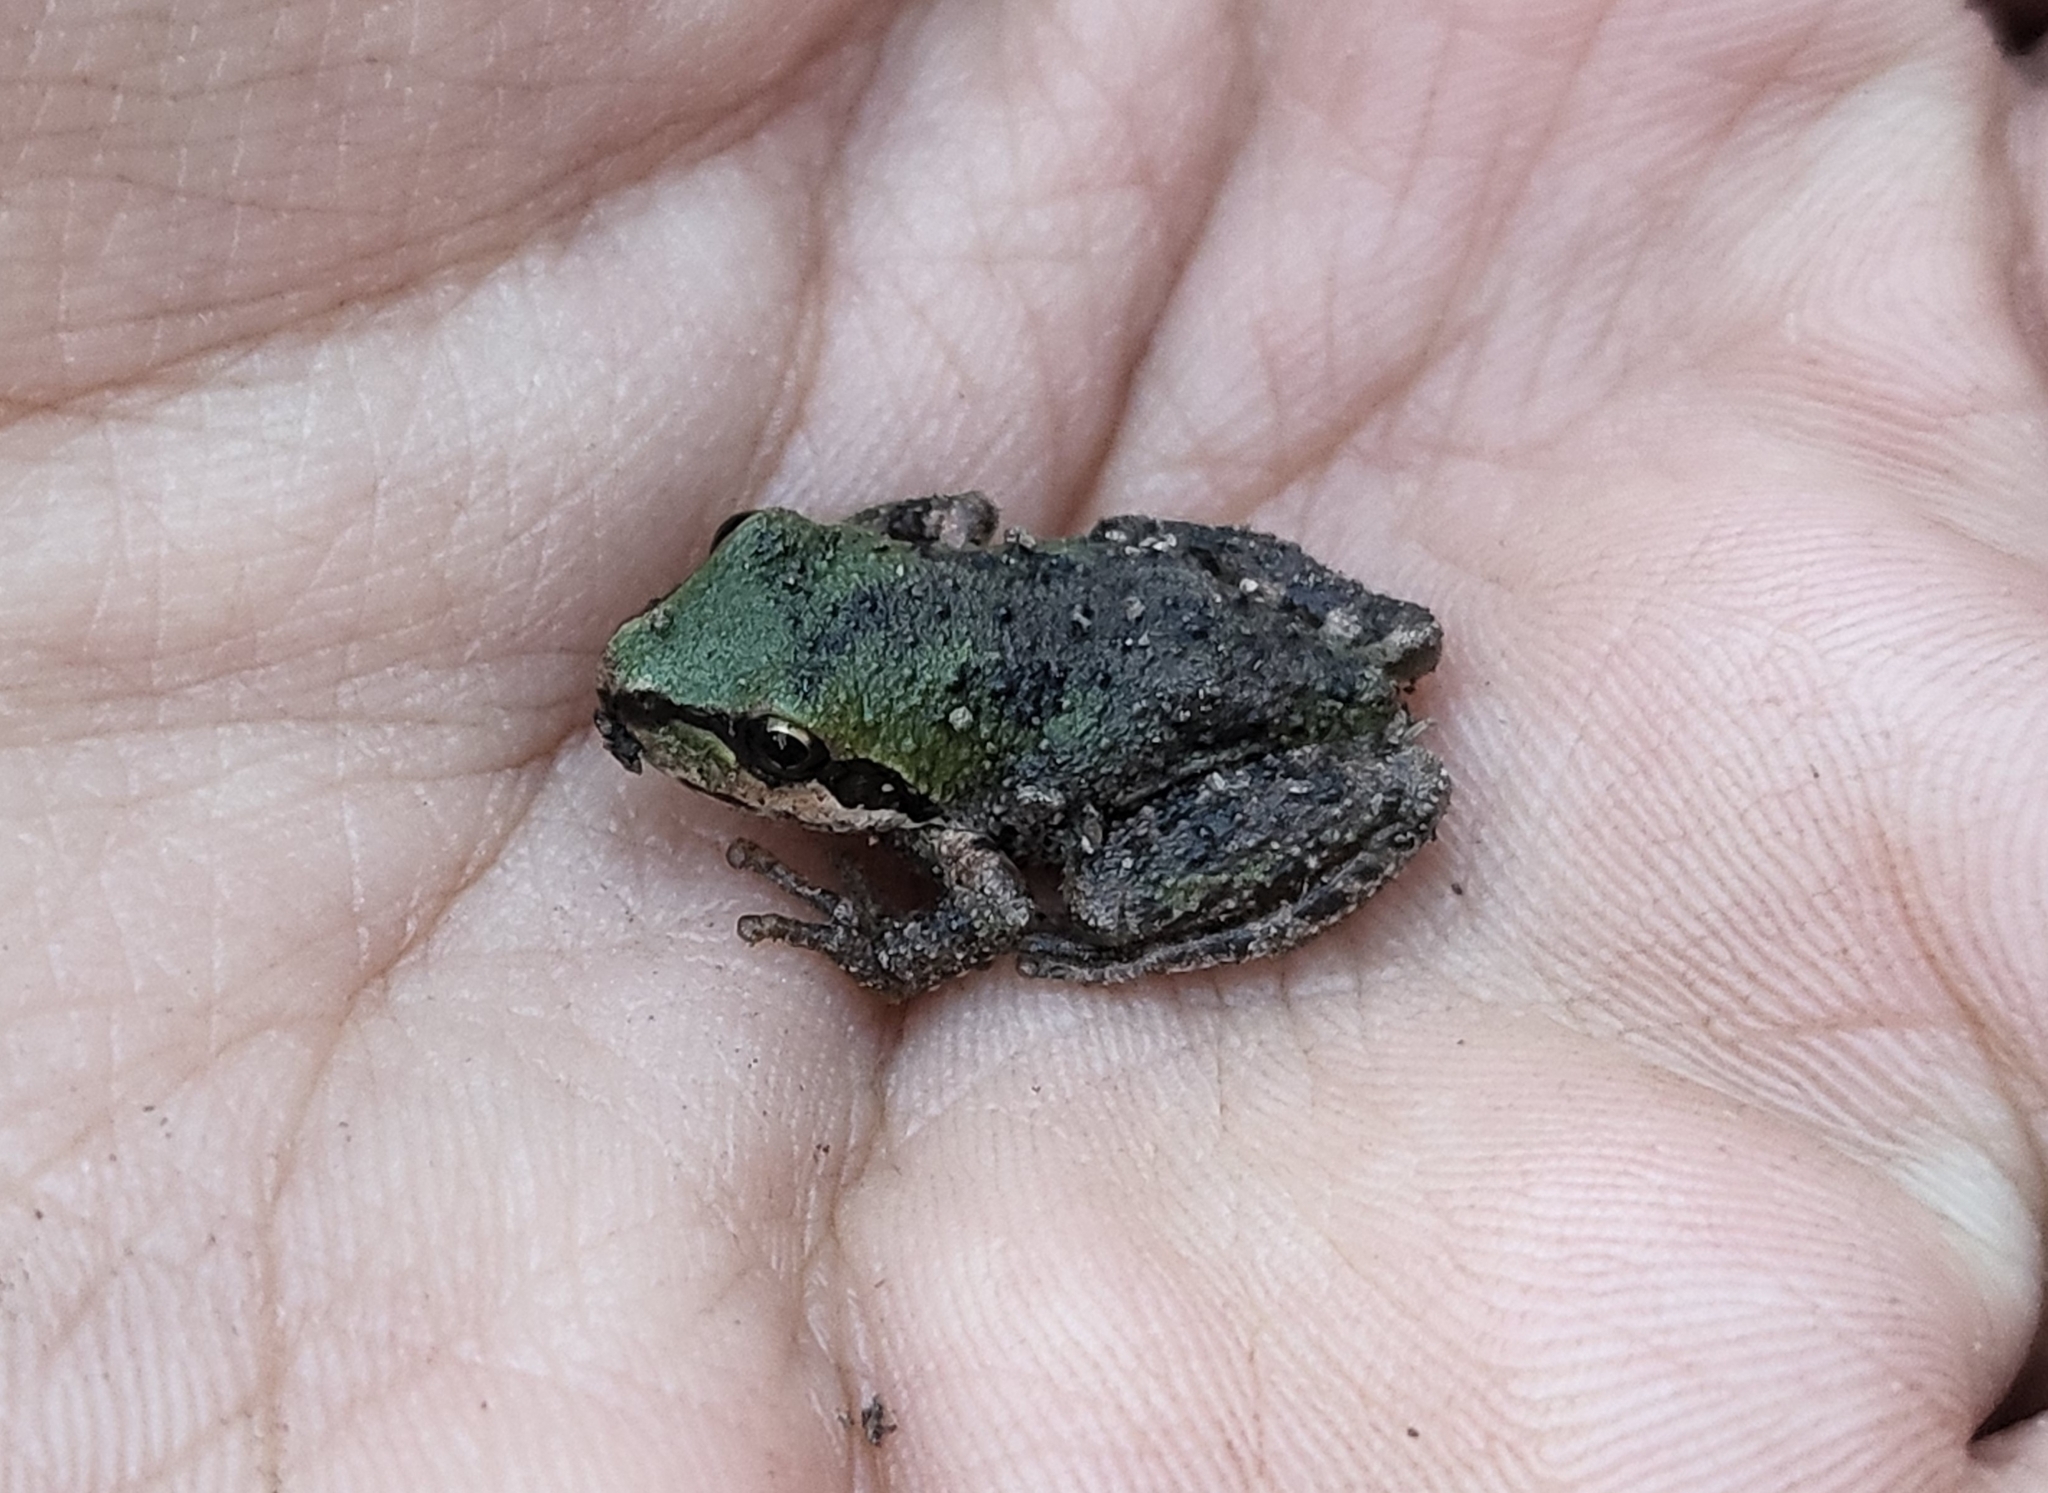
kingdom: Animalia
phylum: Chordata
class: Amphibia
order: Anura
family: Hylidae
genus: Pseudacris
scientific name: Pseudacris regilla
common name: Pacific chorus frog
